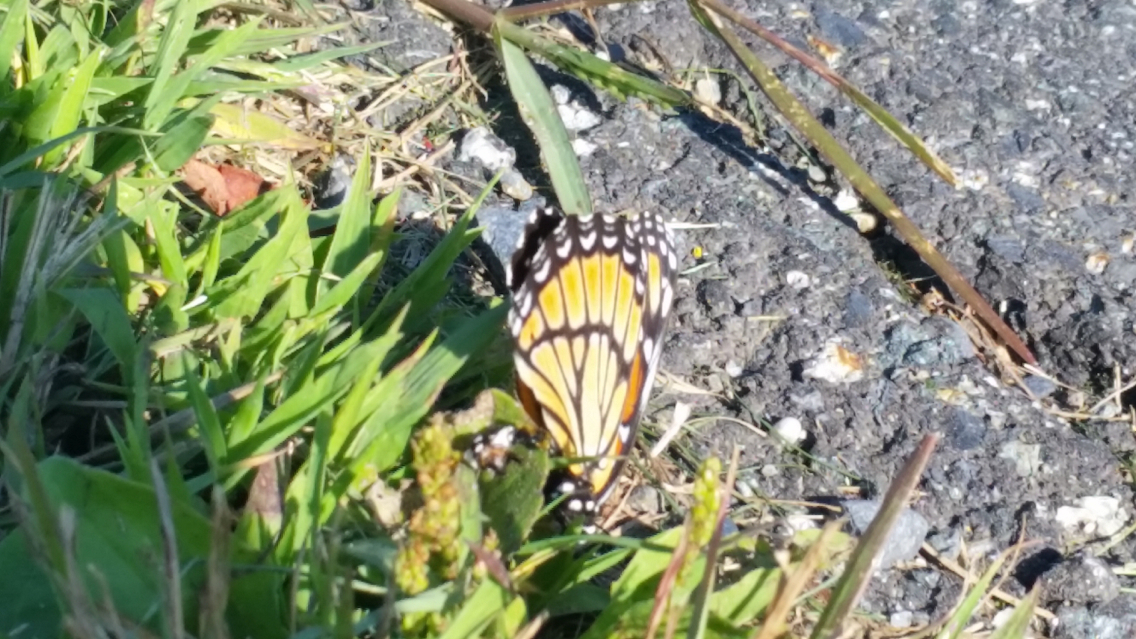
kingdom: Animalia
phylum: Arthropoda
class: Insecta
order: Lepidoptera
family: Nymphalidae
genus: Limenitis
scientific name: Limenitis archippus
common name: Viceroy
